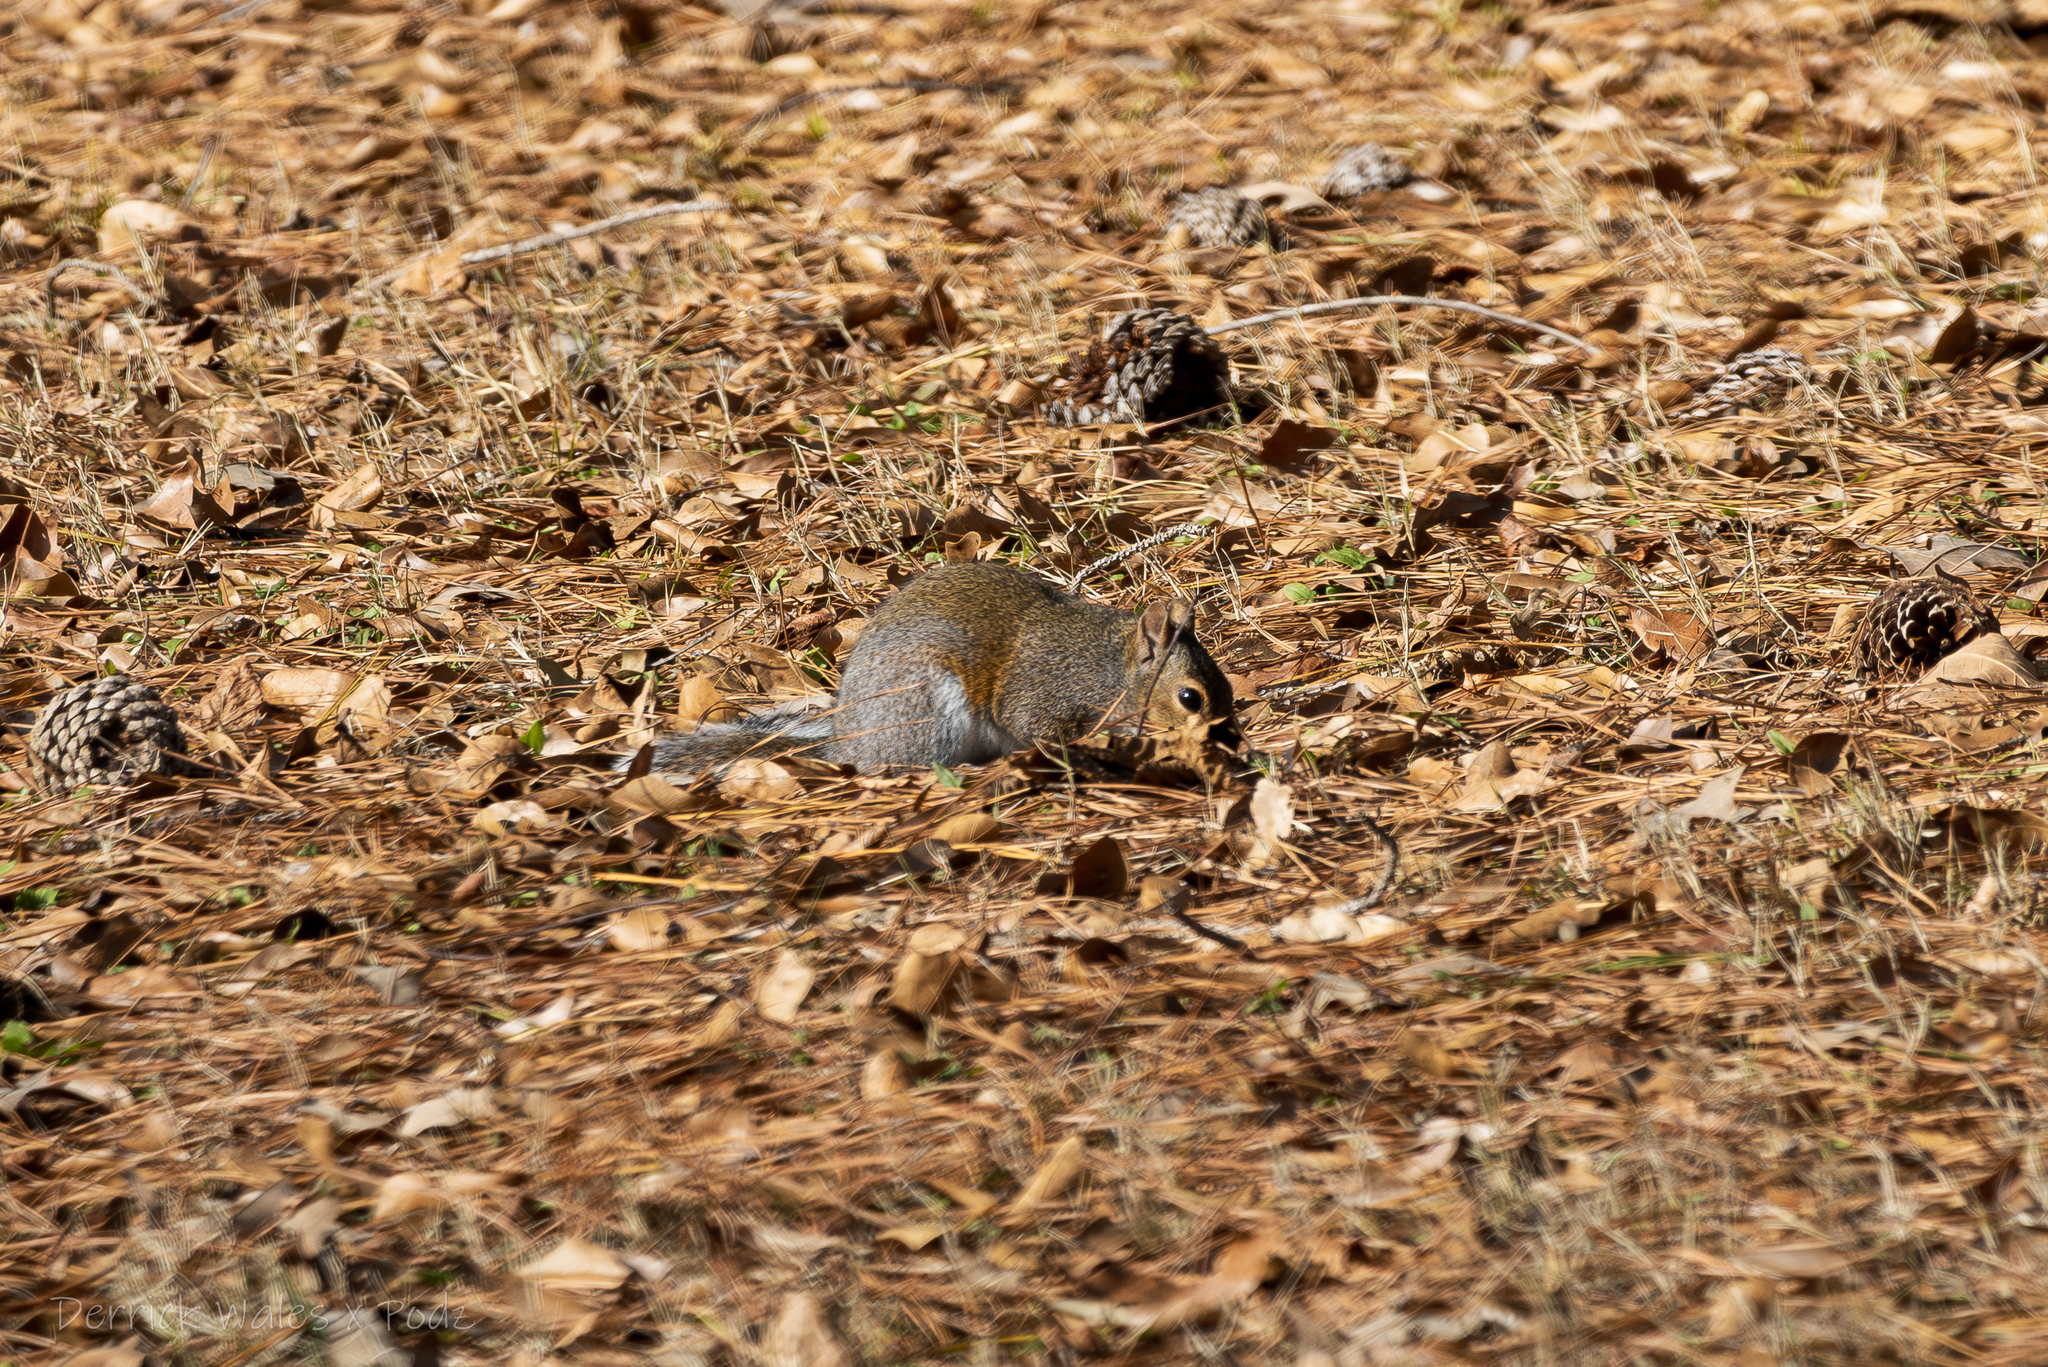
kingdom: Animalia
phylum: Chordata
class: Mammalia
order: Rodentia
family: Sciuridae
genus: Sciurus
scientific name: Sciurus carolinensis
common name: Eastern gray squirrel
